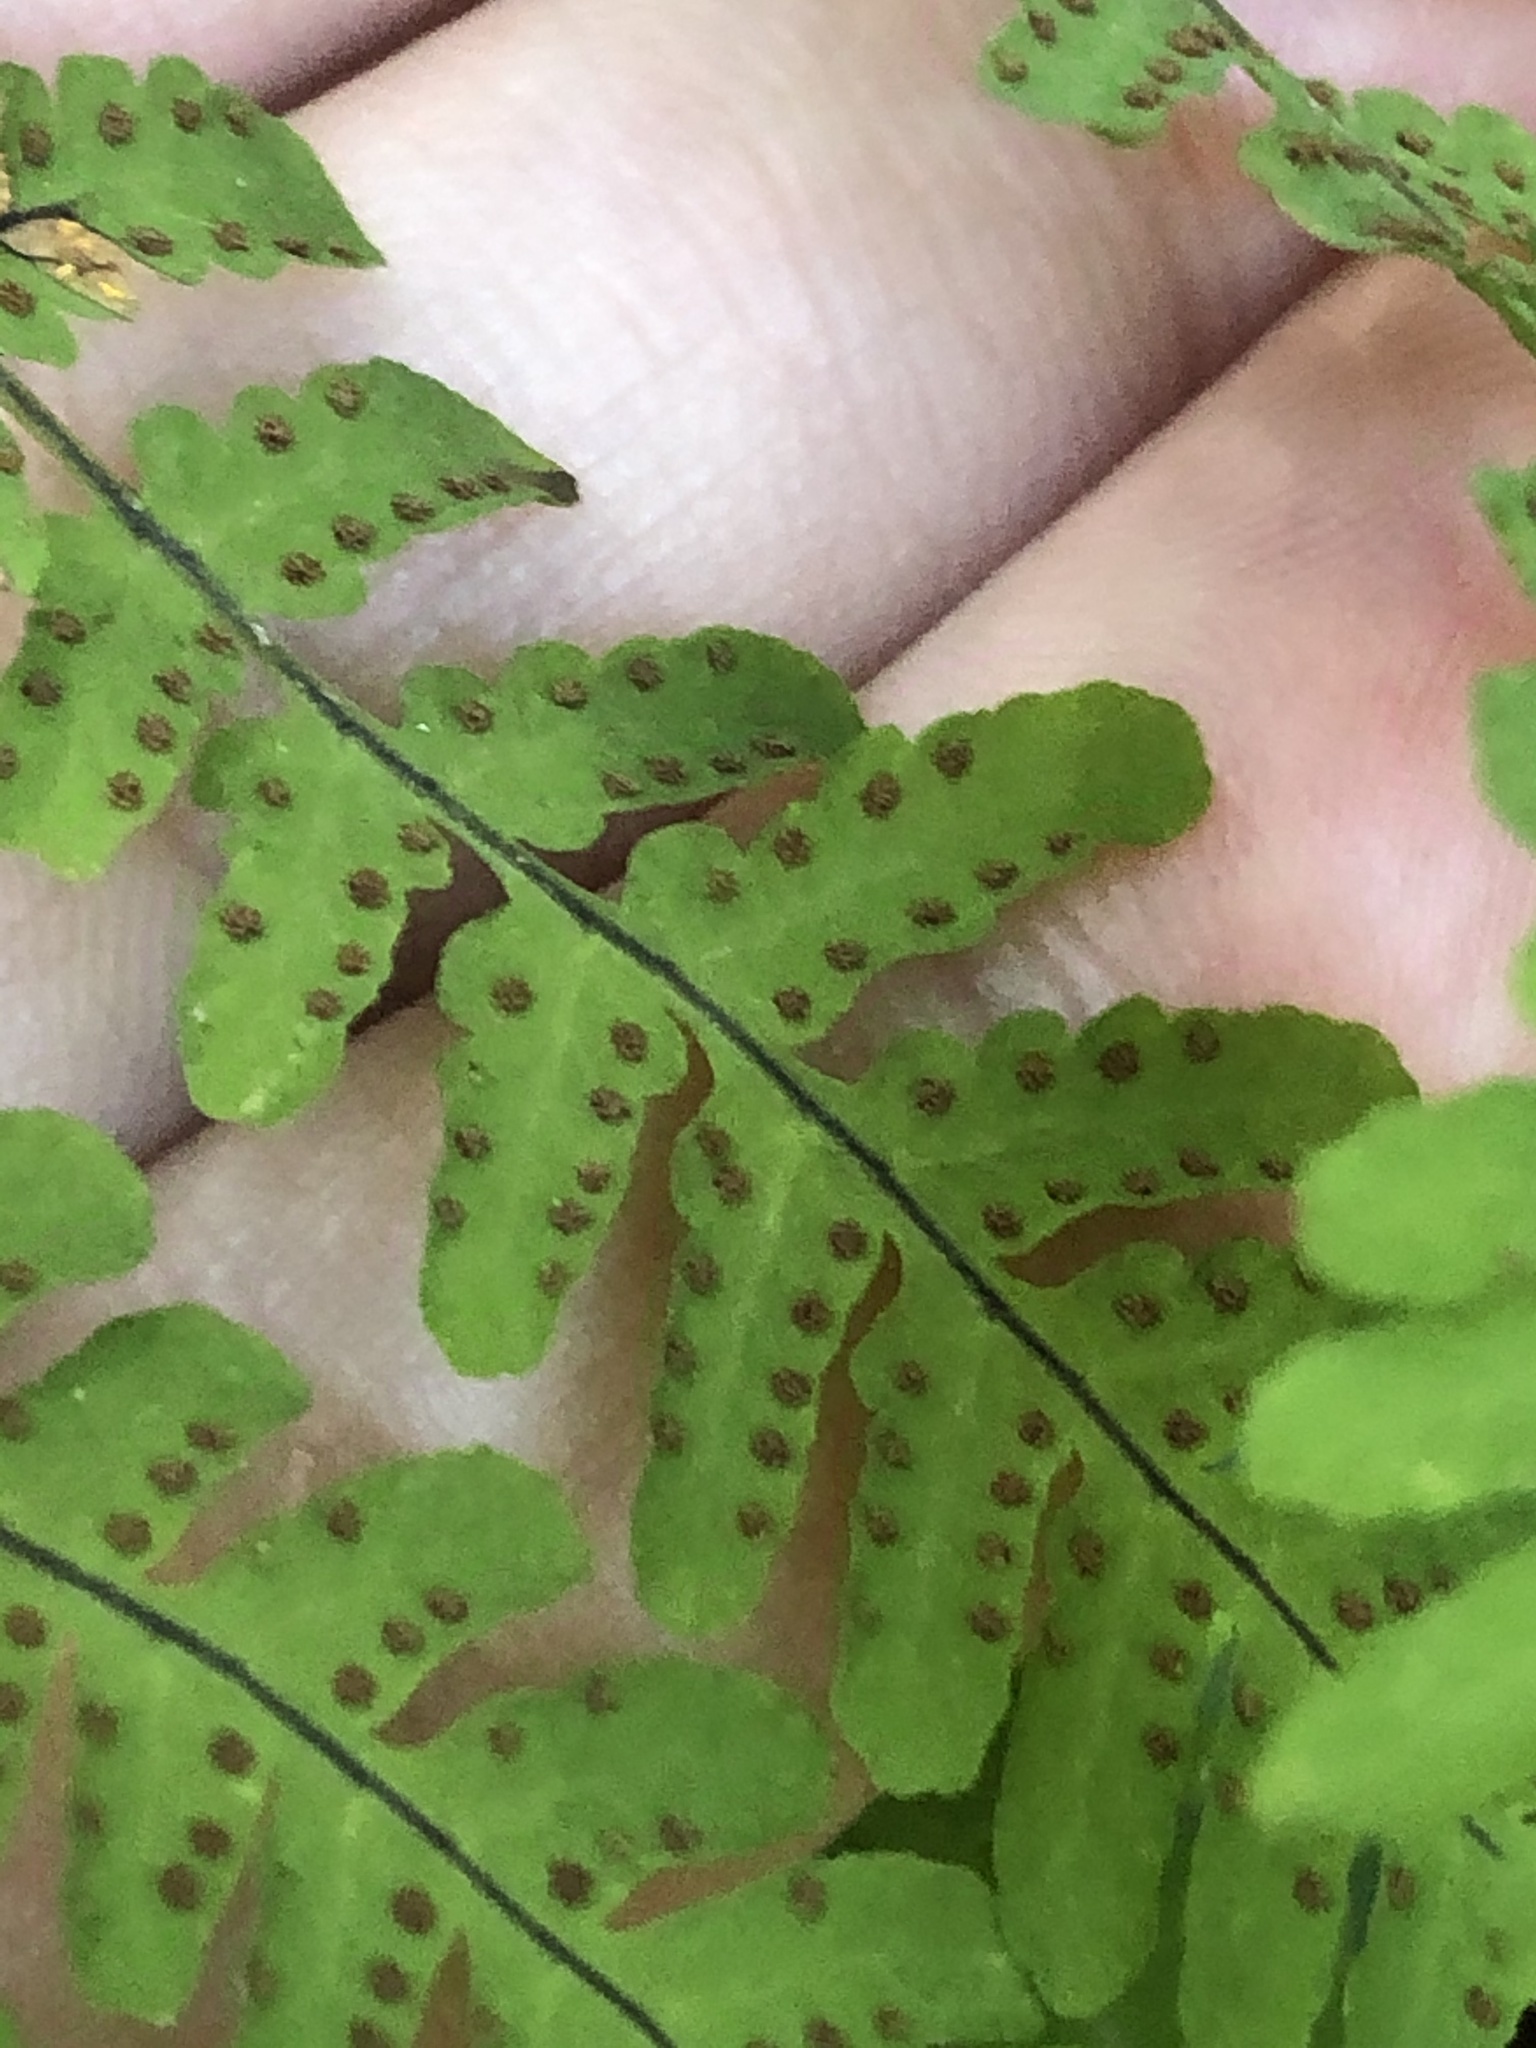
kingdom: Plantae
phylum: Tracheophyta
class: Polypodiopsida
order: Polypodiales
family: Cystopteridaceae
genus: Gymnocarpium
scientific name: Gymnocarpium disjunctum
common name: Western oak fern
